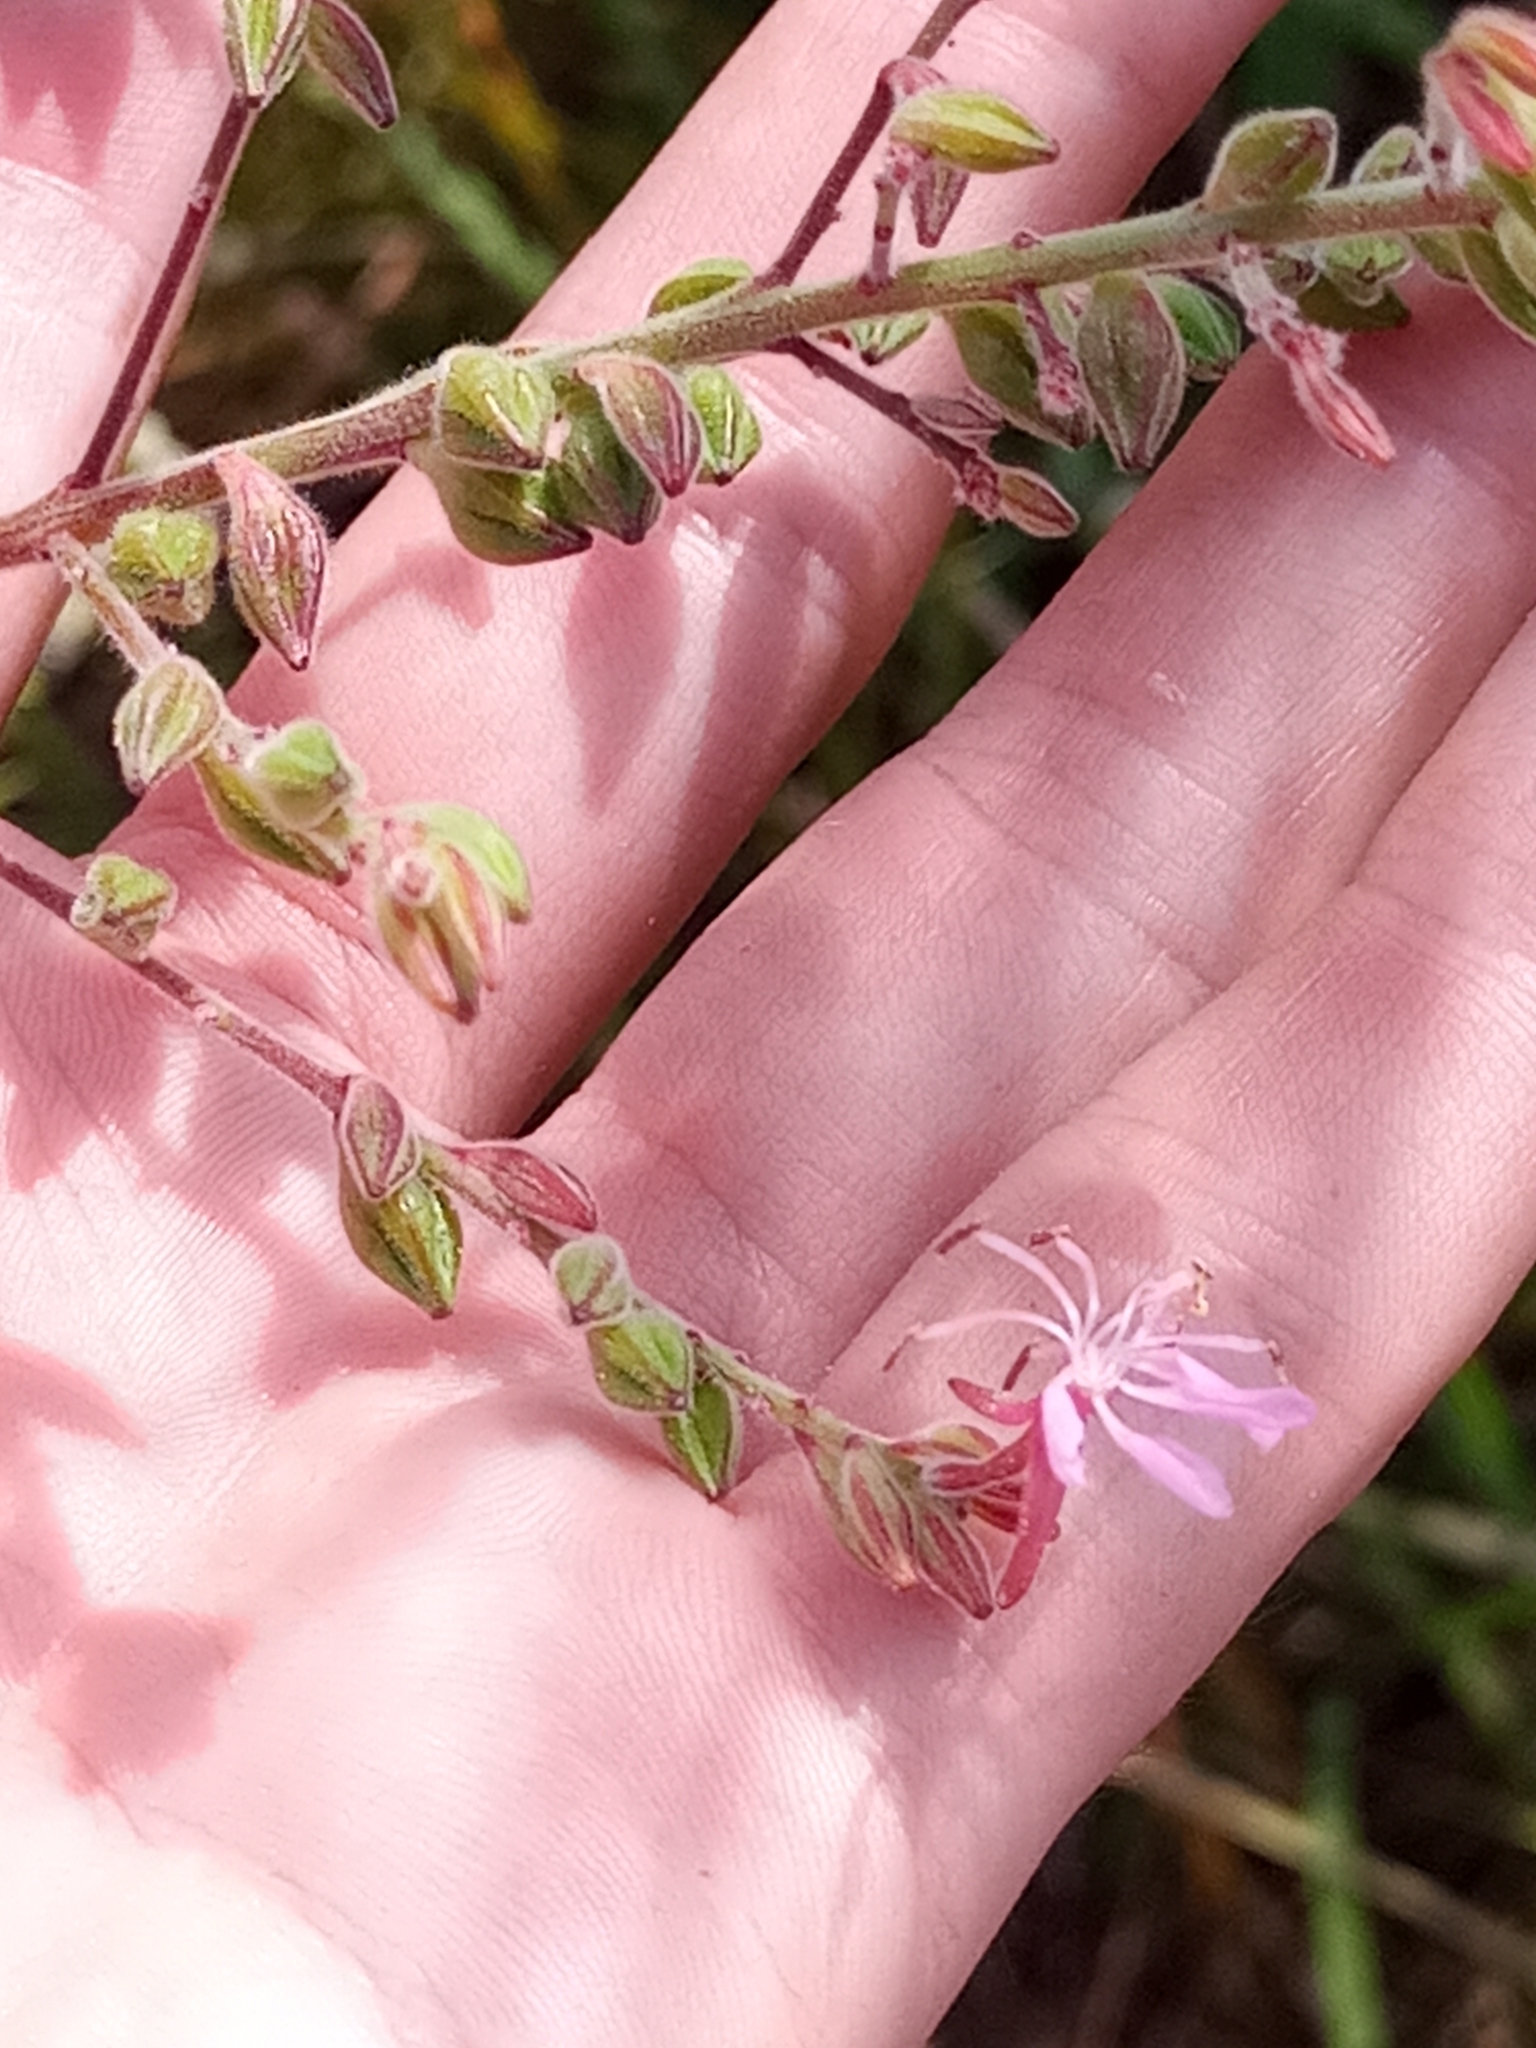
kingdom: Plantae
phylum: Tracheophyta
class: Magnoliopsida
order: Myrtales
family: Onagraceae
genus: Oenothera
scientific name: Oenothera gaura
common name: Biennial beeblossom
